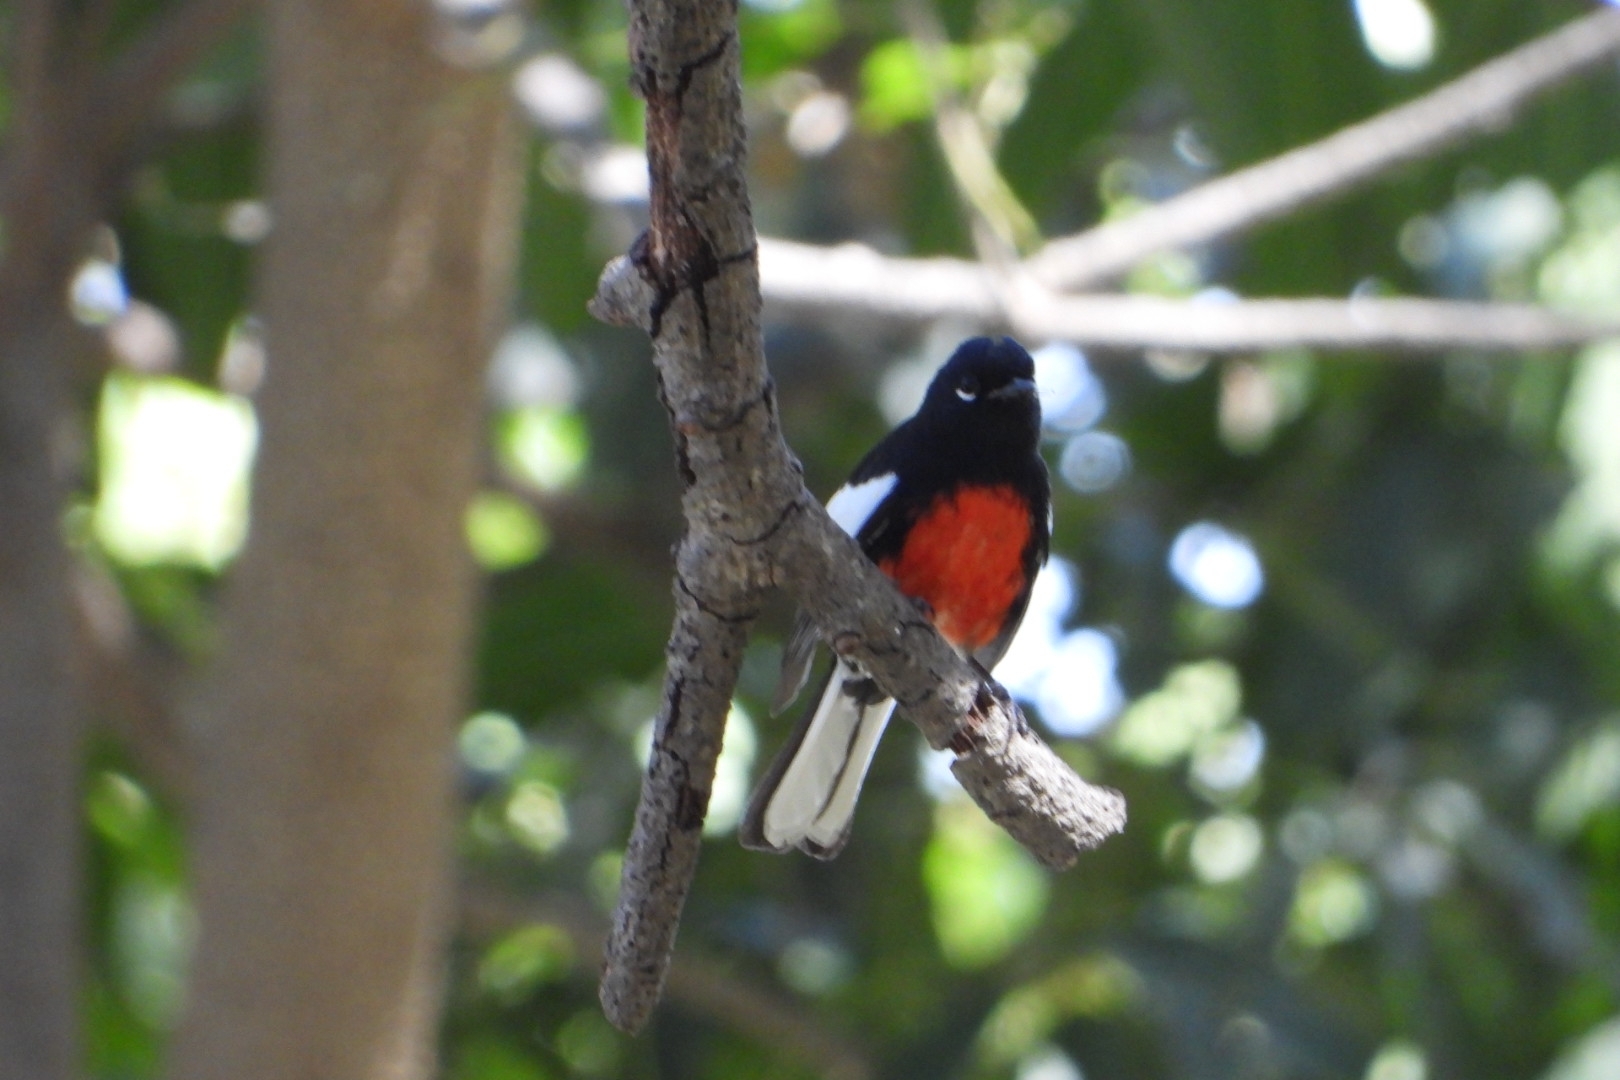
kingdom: Animalia
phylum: Chordata
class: Aves
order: Passeriformes
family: Parulidae
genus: Myioborus
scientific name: Myioborus pictus
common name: Painted whitestart
